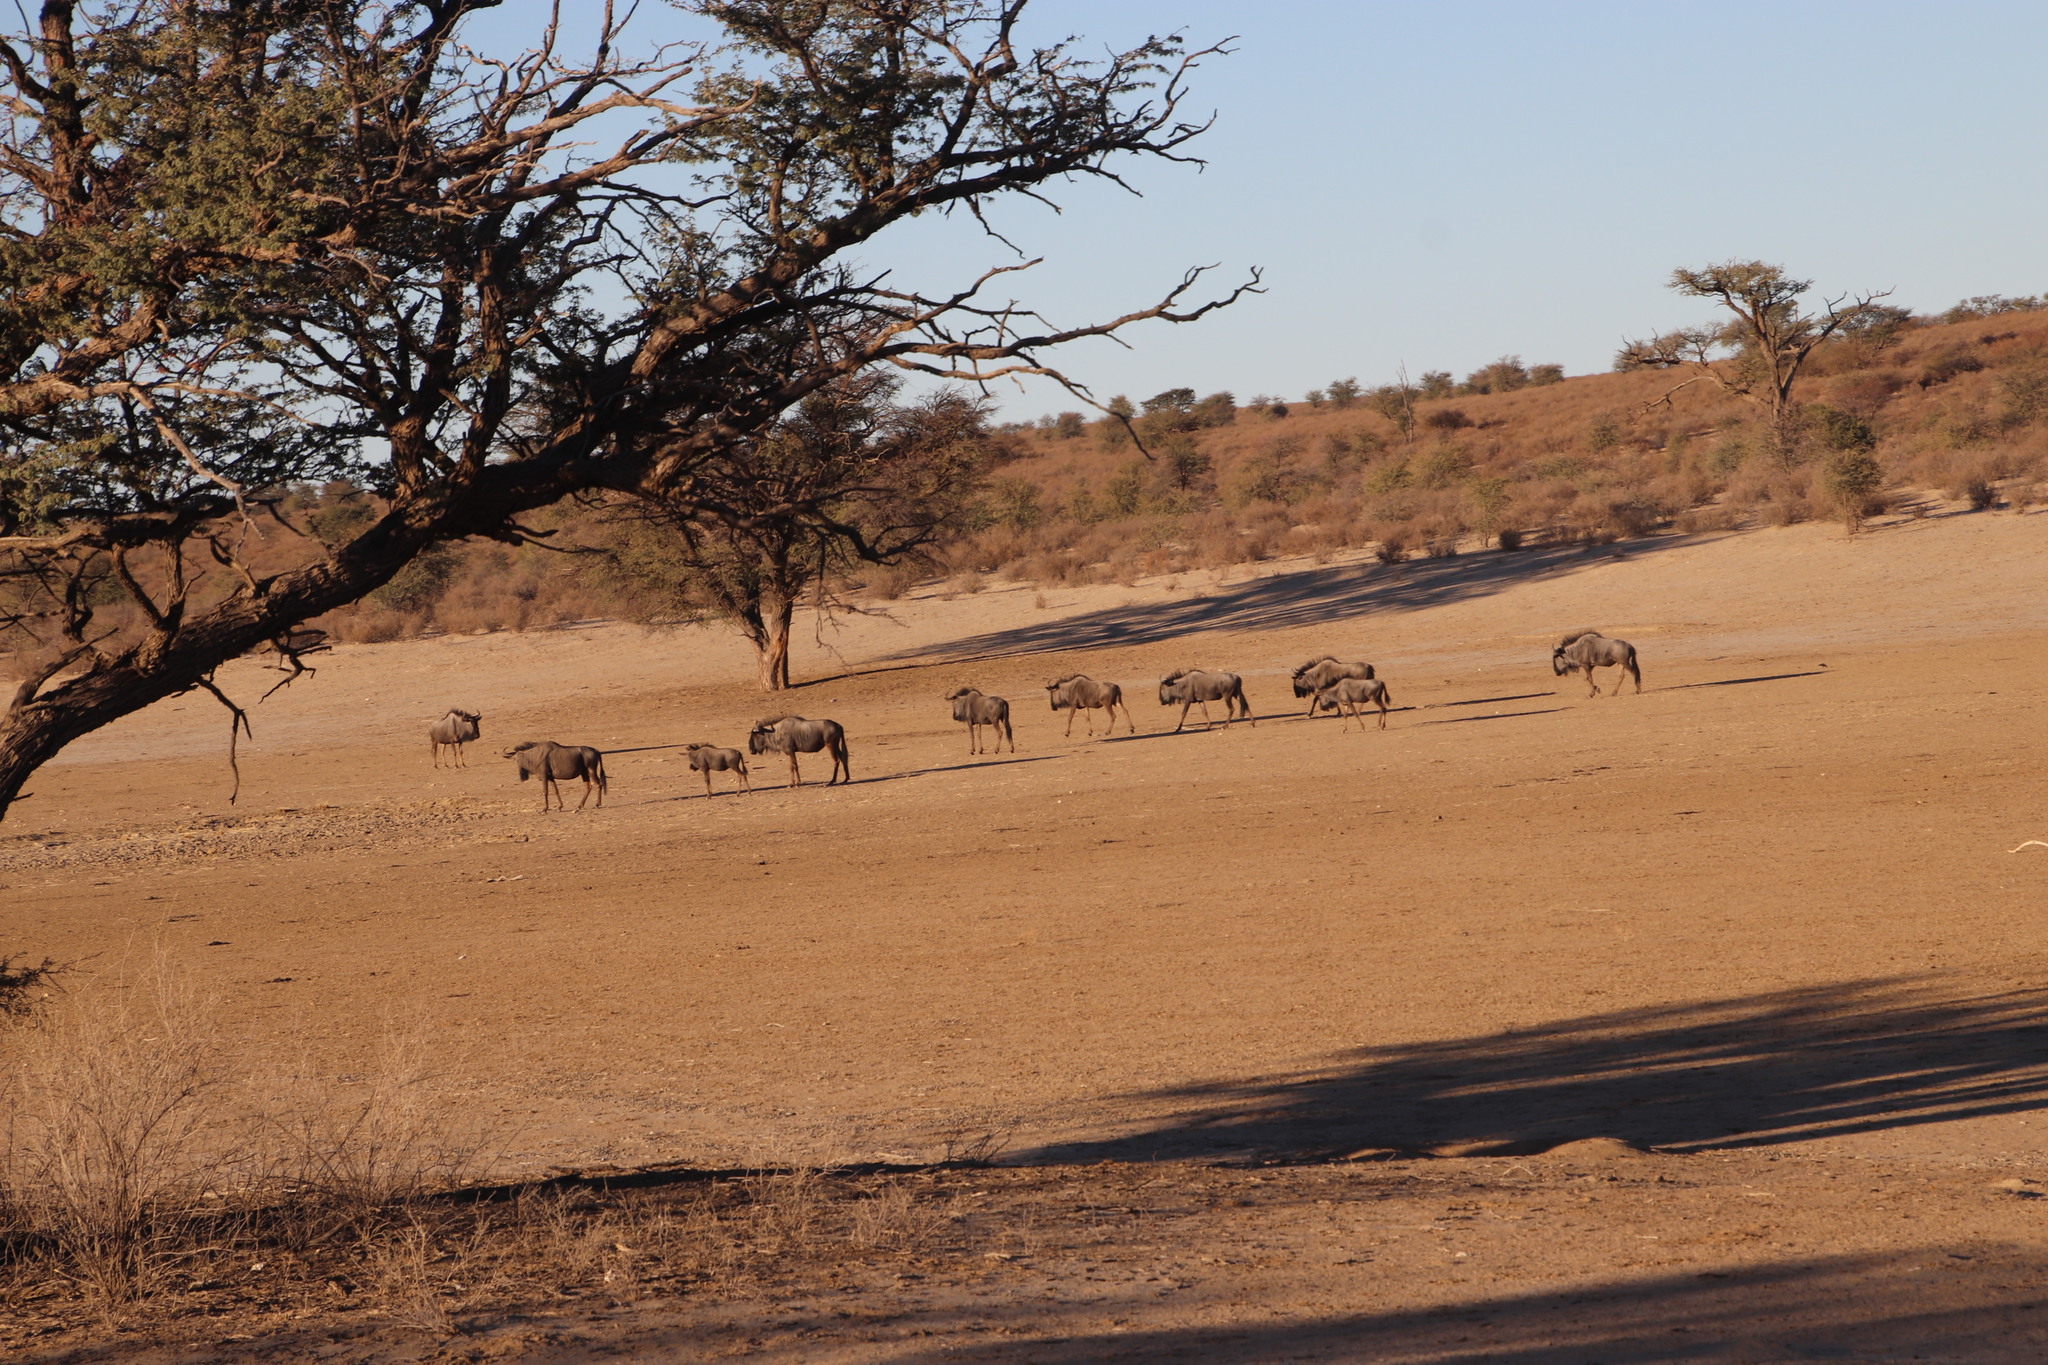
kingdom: Animalia
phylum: Chordata
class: Mammalia
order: Artiodactyla
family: Bovidae
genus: Connochaetes
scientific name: Connochaetes taurinus
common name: Blue wildebeest
